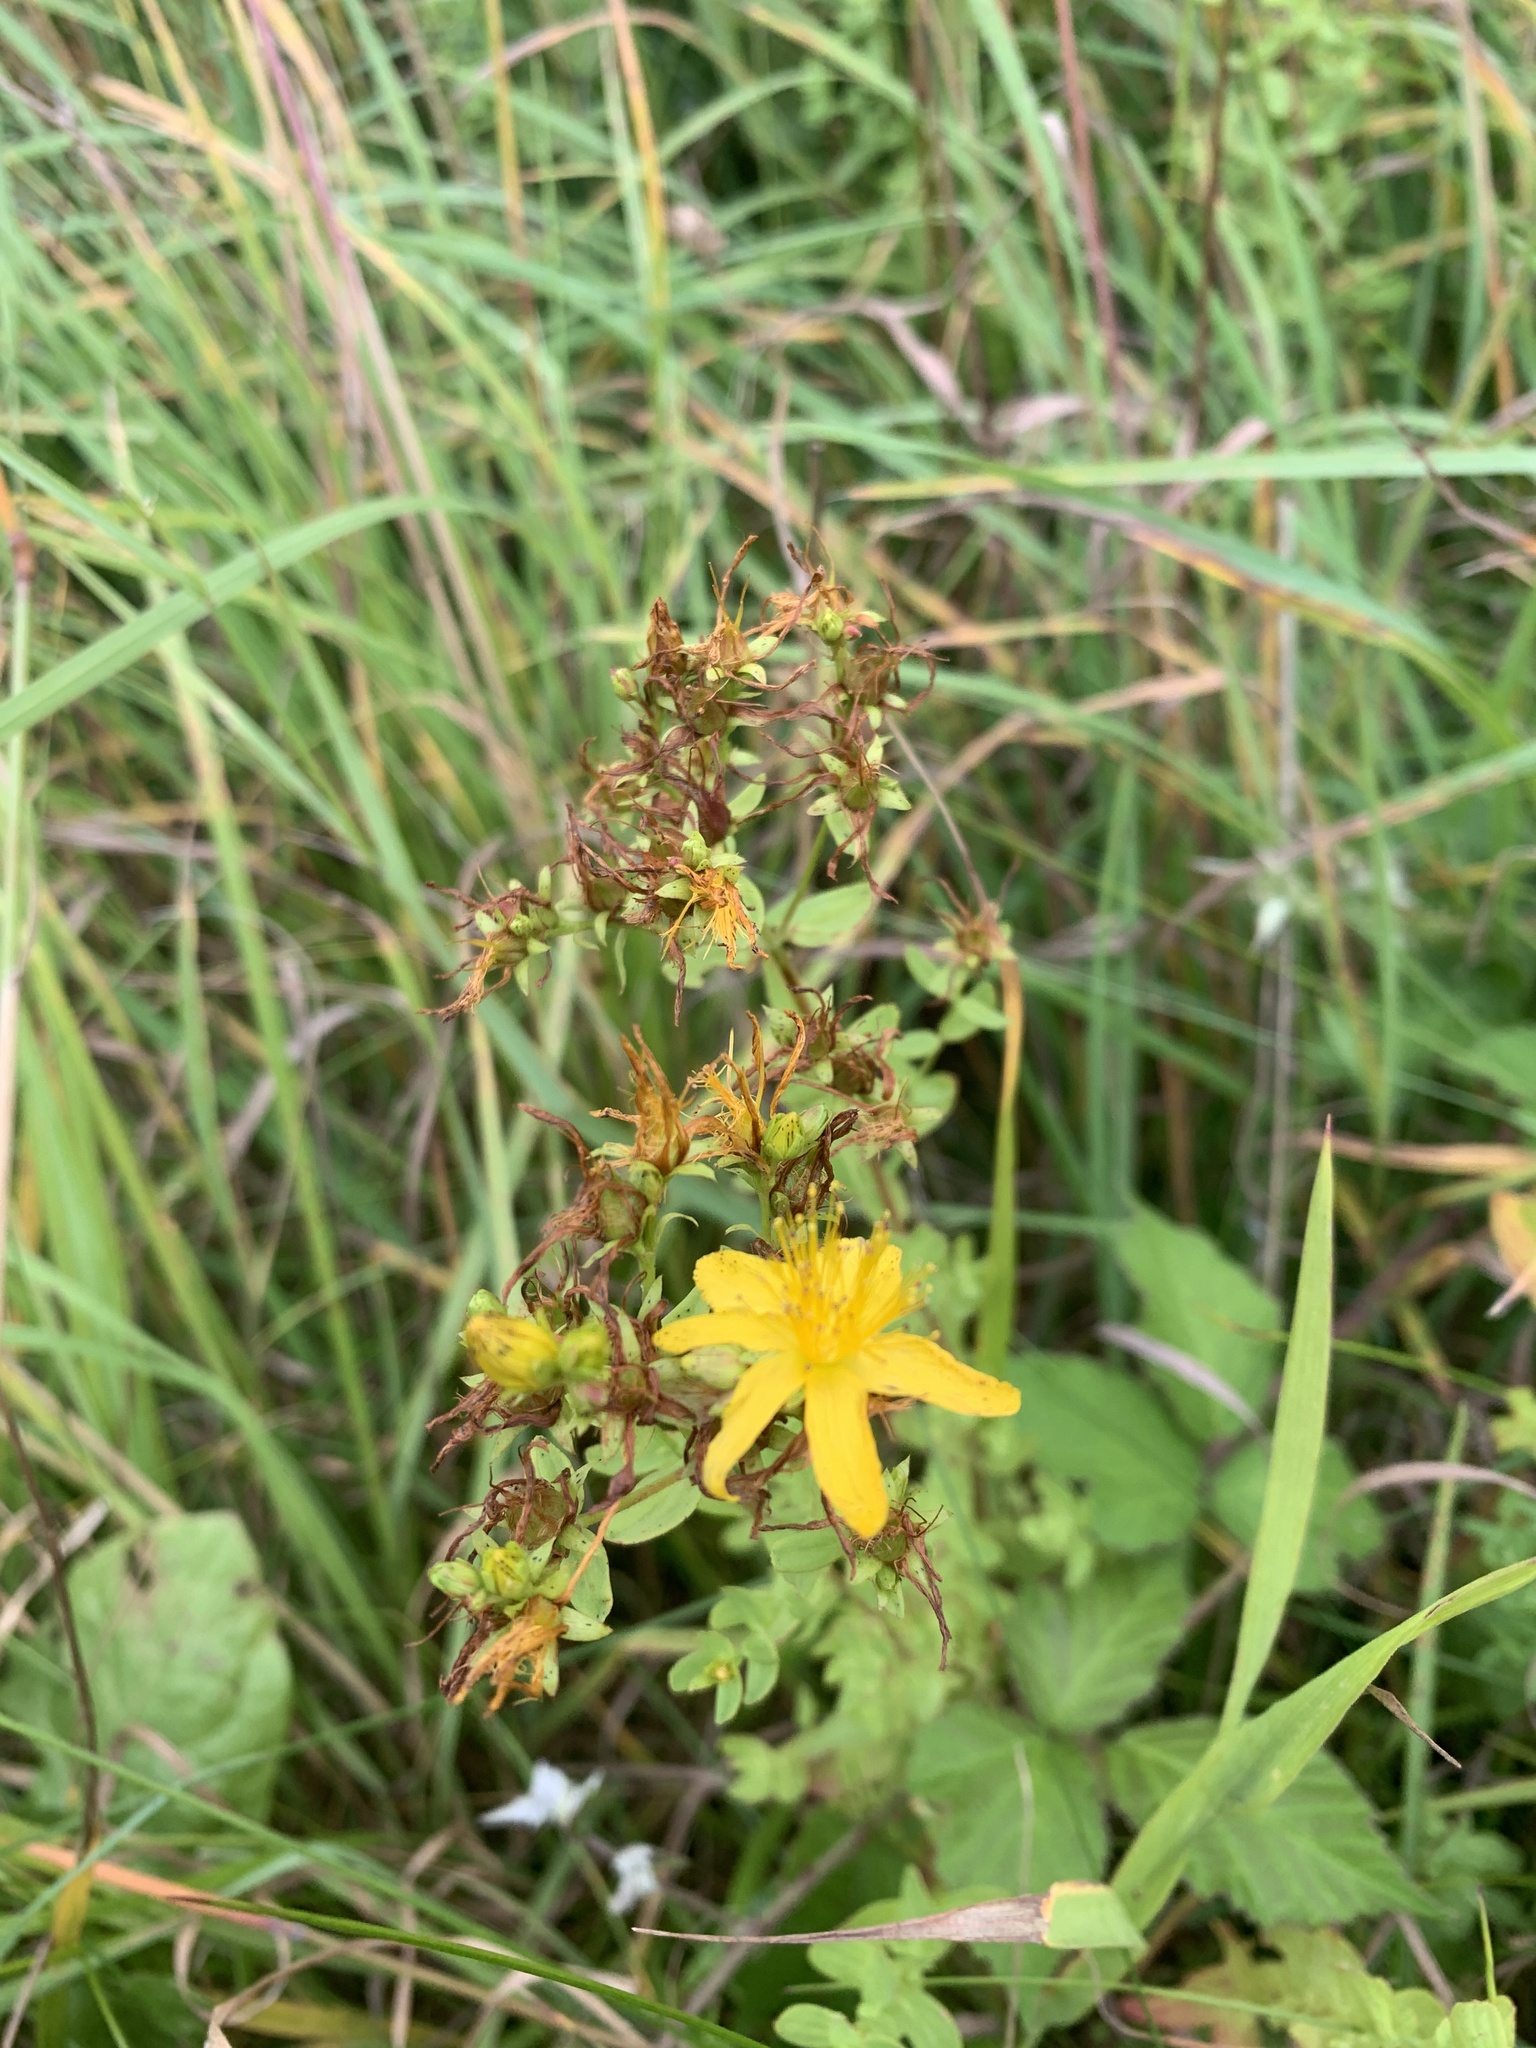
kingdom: Plantae
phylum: Tracheophyta
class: Magnoliopsida
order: Malpighiales
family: Hypericaceae
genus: Hypericum
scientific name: Hypericum perforatum
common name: Common st. johnswort
